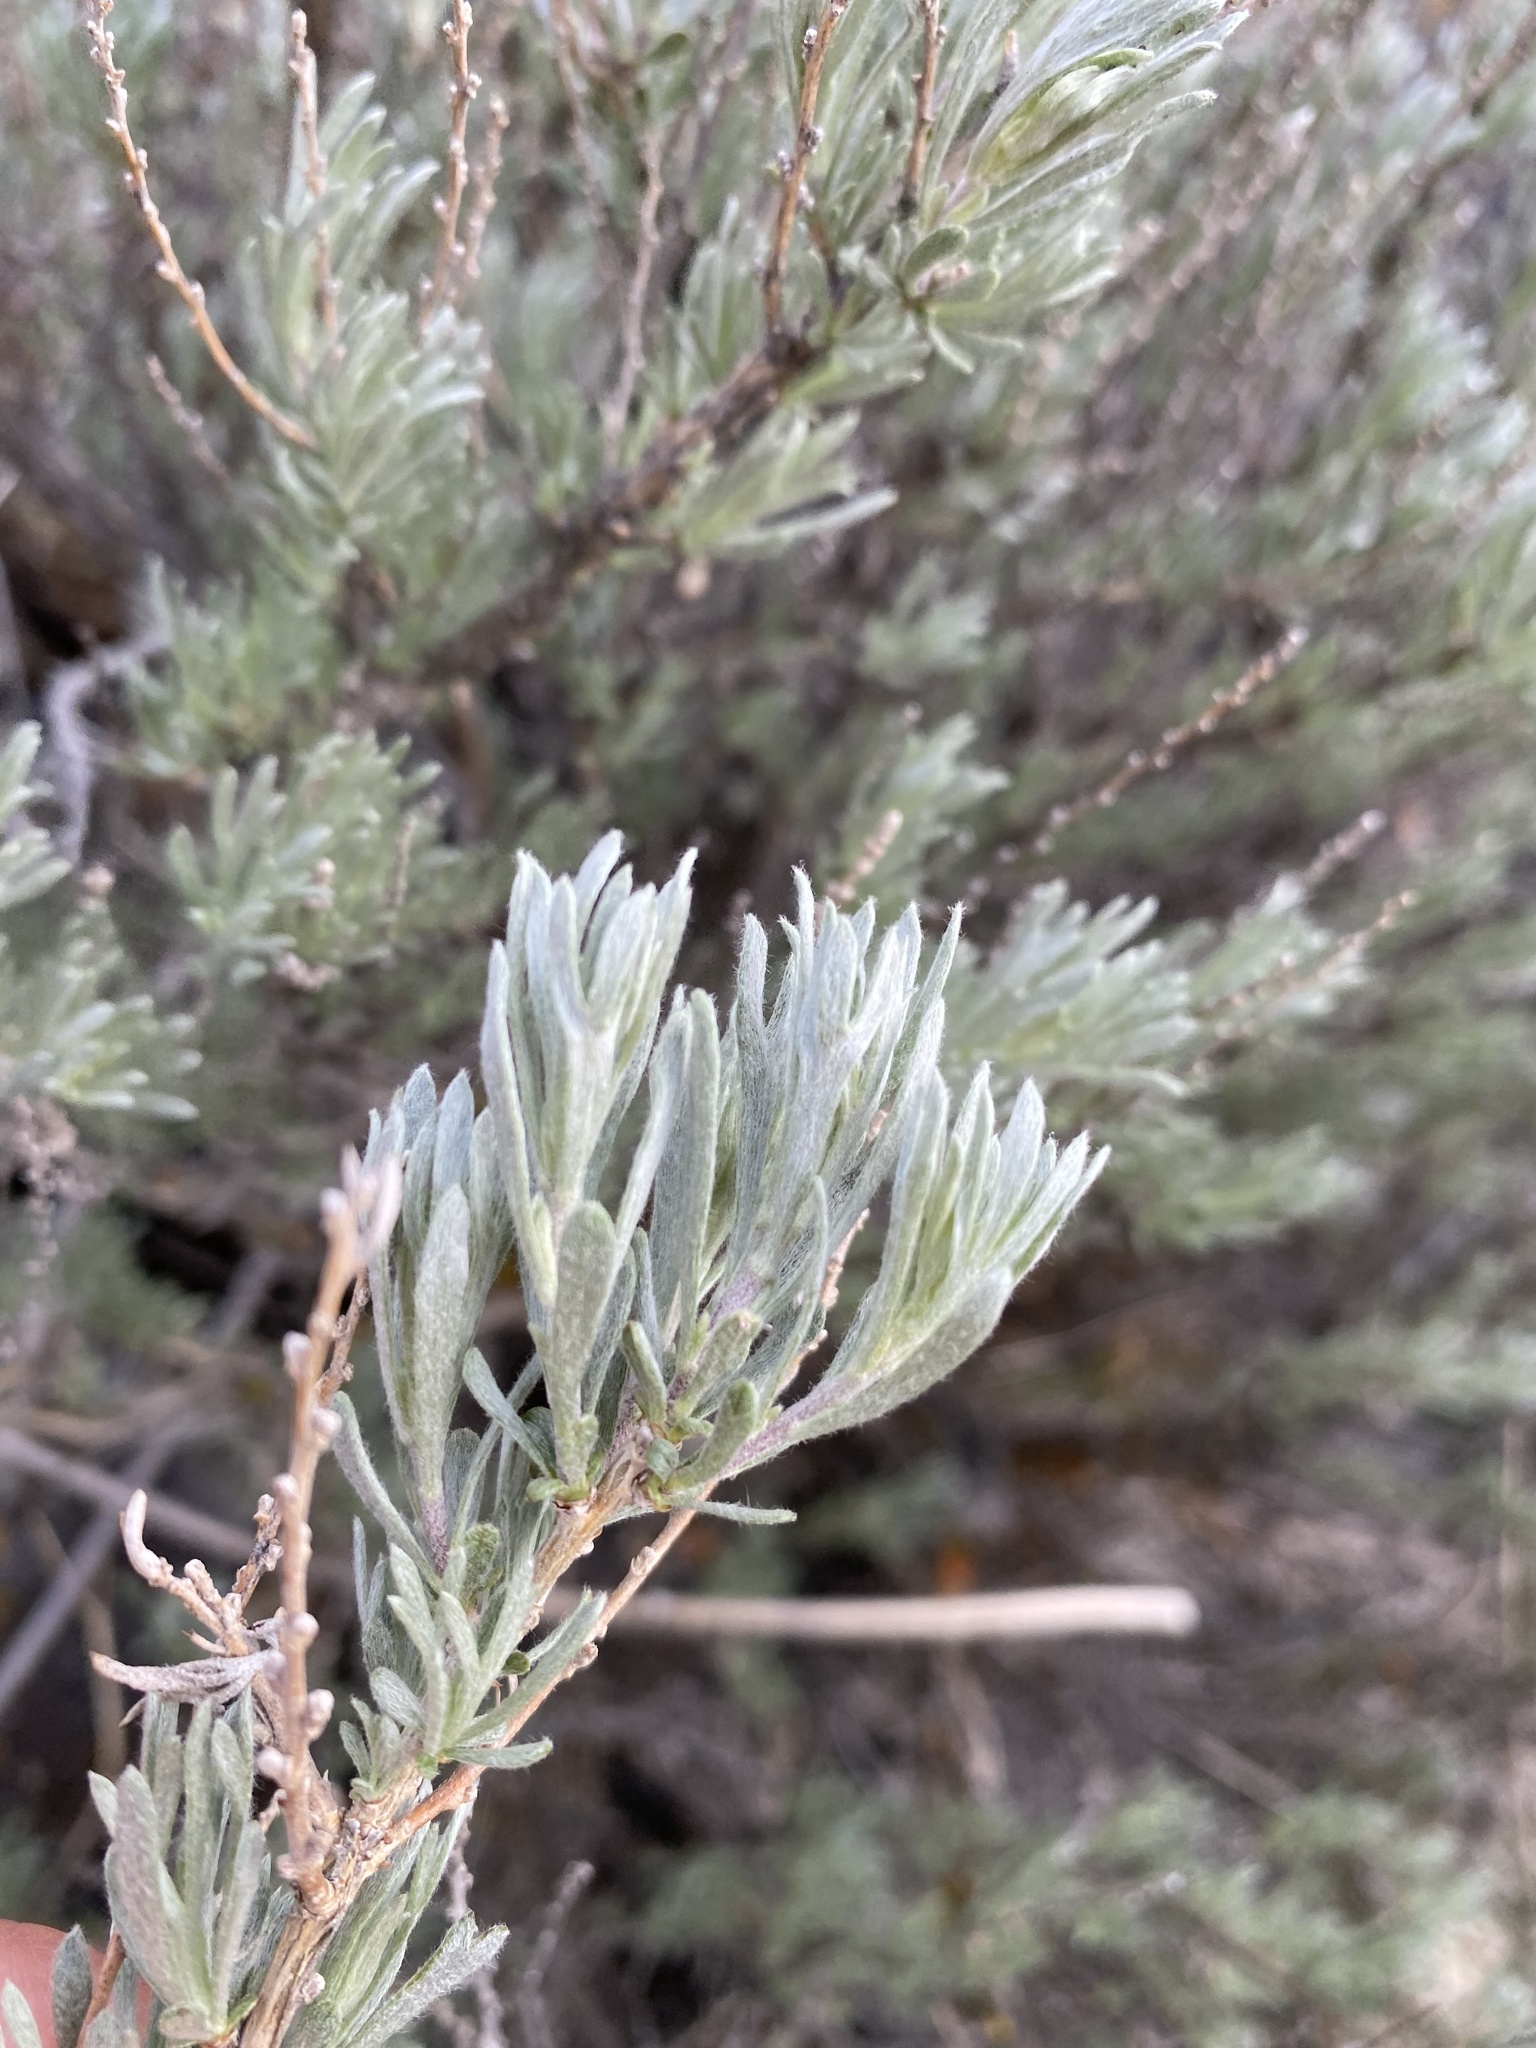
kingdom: Plantae
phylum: Tracheophyta
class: Magnoliopsida
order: Asterales
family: Asteraceae
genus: Artemisia
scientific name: Artemisia rigida
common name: Scabland sagebrush
